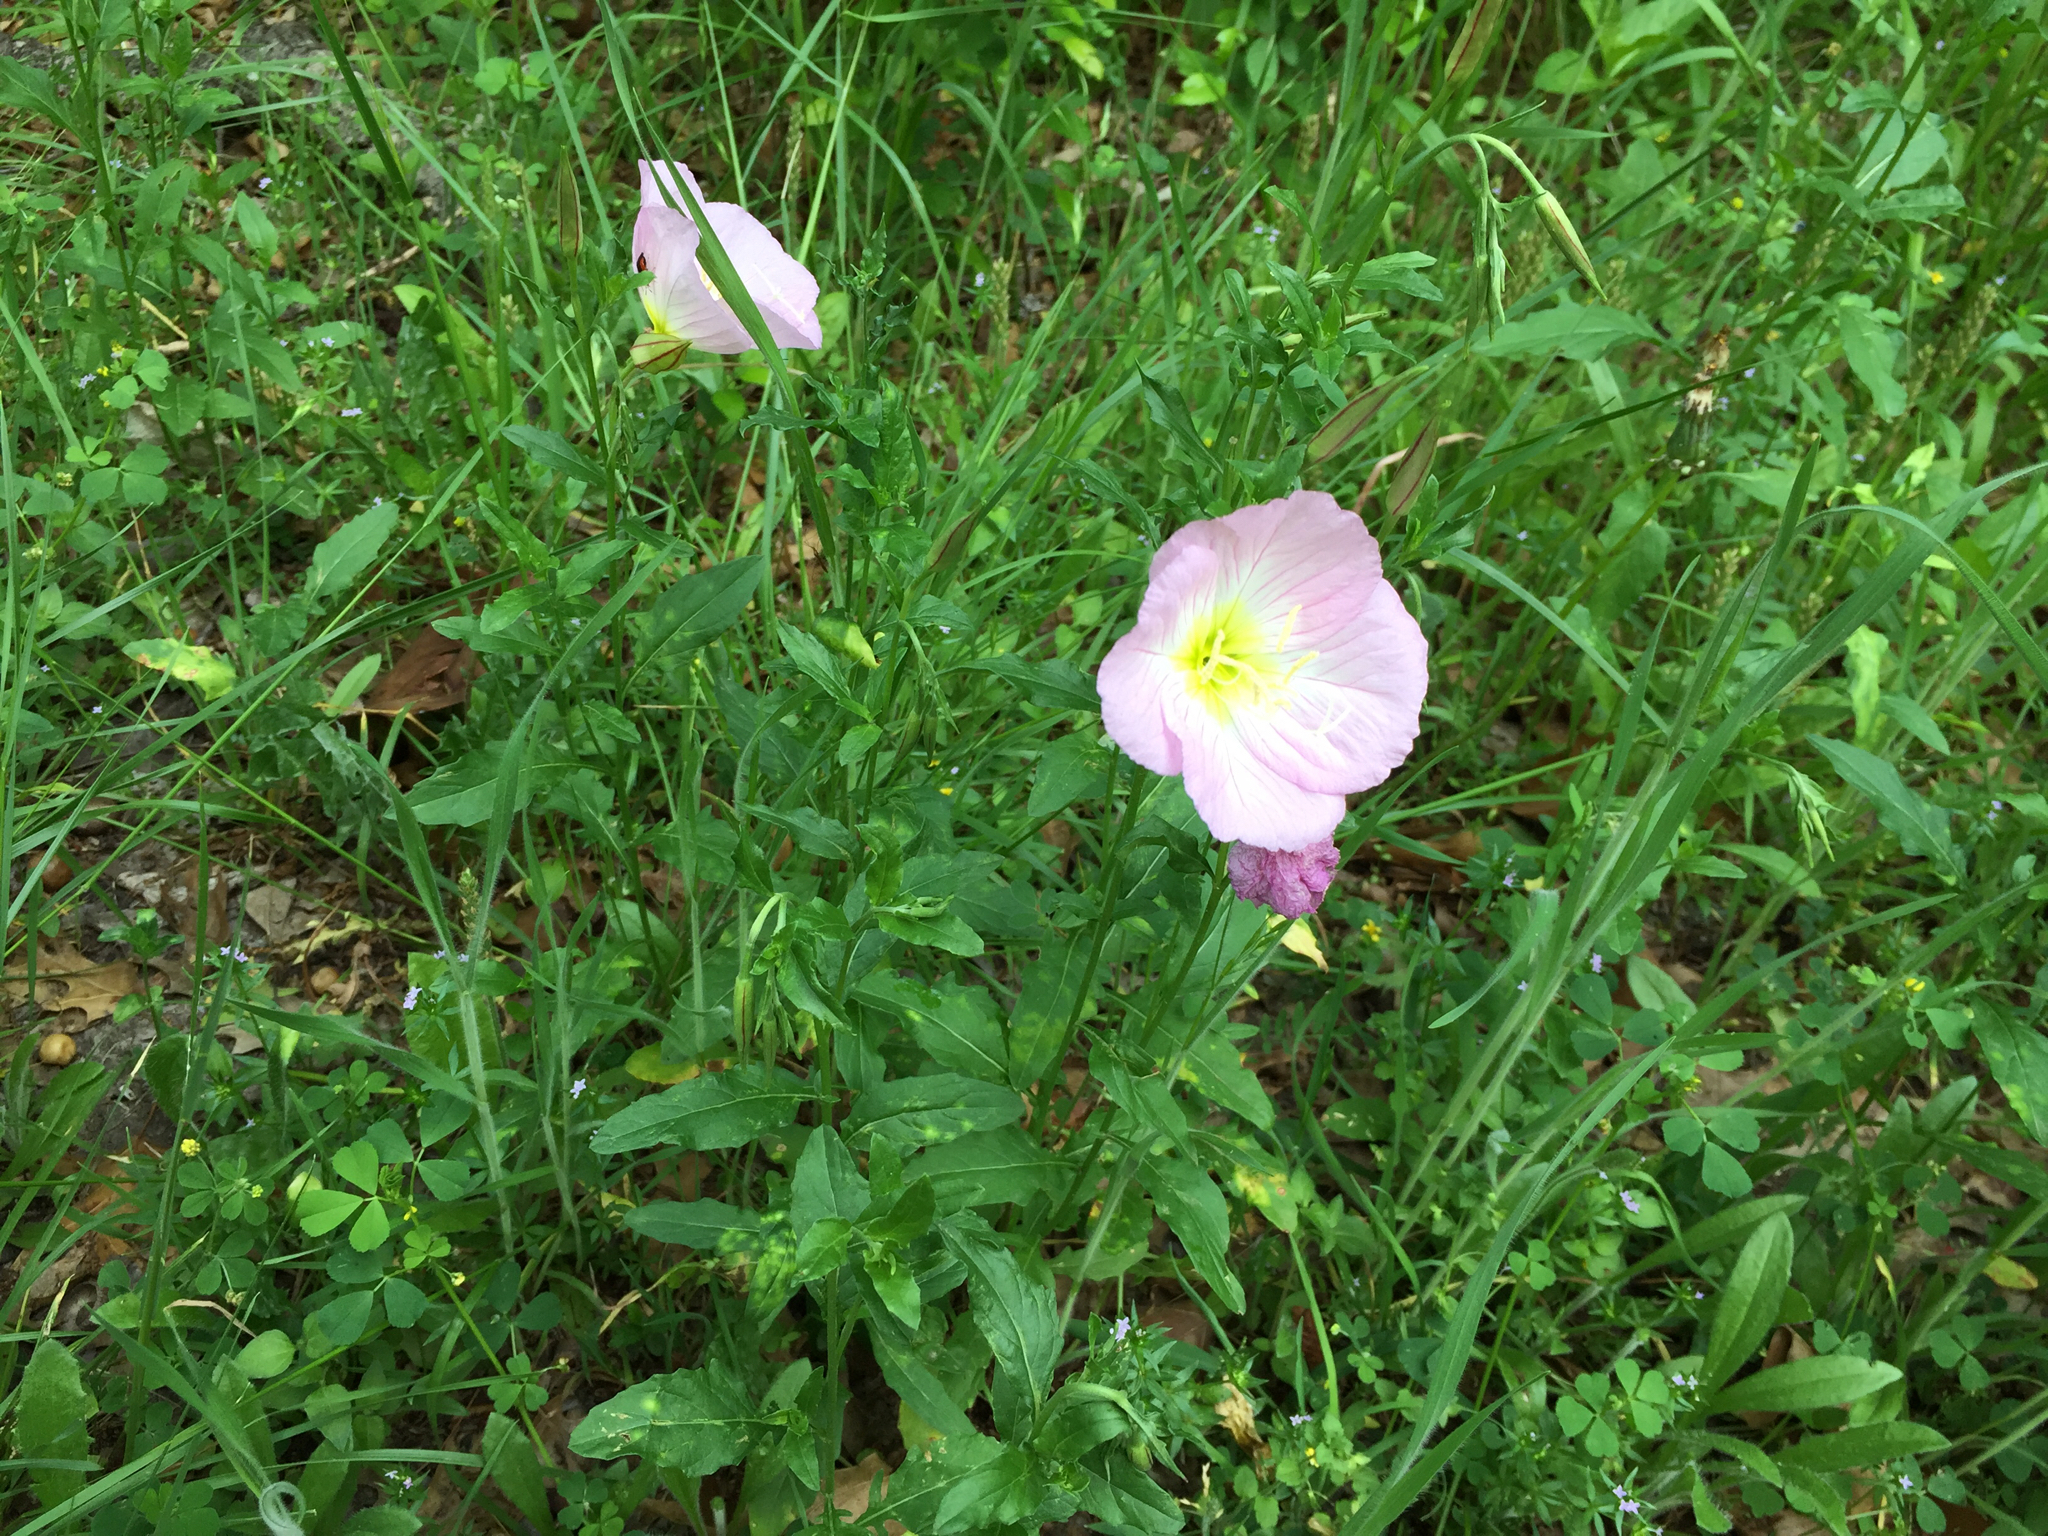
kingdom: Plantae
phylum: Tracheophyta
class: Magnoliopsida
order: Myrtales
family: Onagraceae
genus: Oenothera
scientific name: Oenothera speciosa
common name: White evening-primrose
